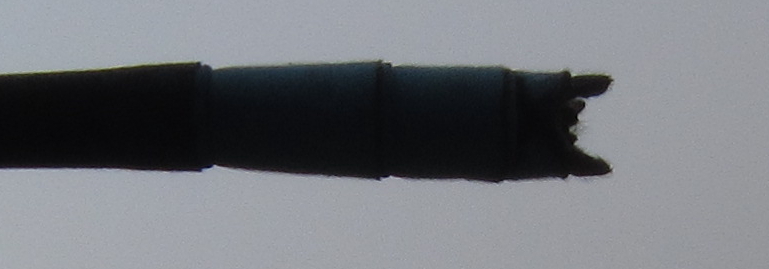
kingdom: Animalia
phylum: Arthropoda
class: Insecta
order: Odonata
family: Coenagrionidae
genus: Pseudagrion
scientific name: Pseudagrion glaucescens
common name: Blue-green sprite
